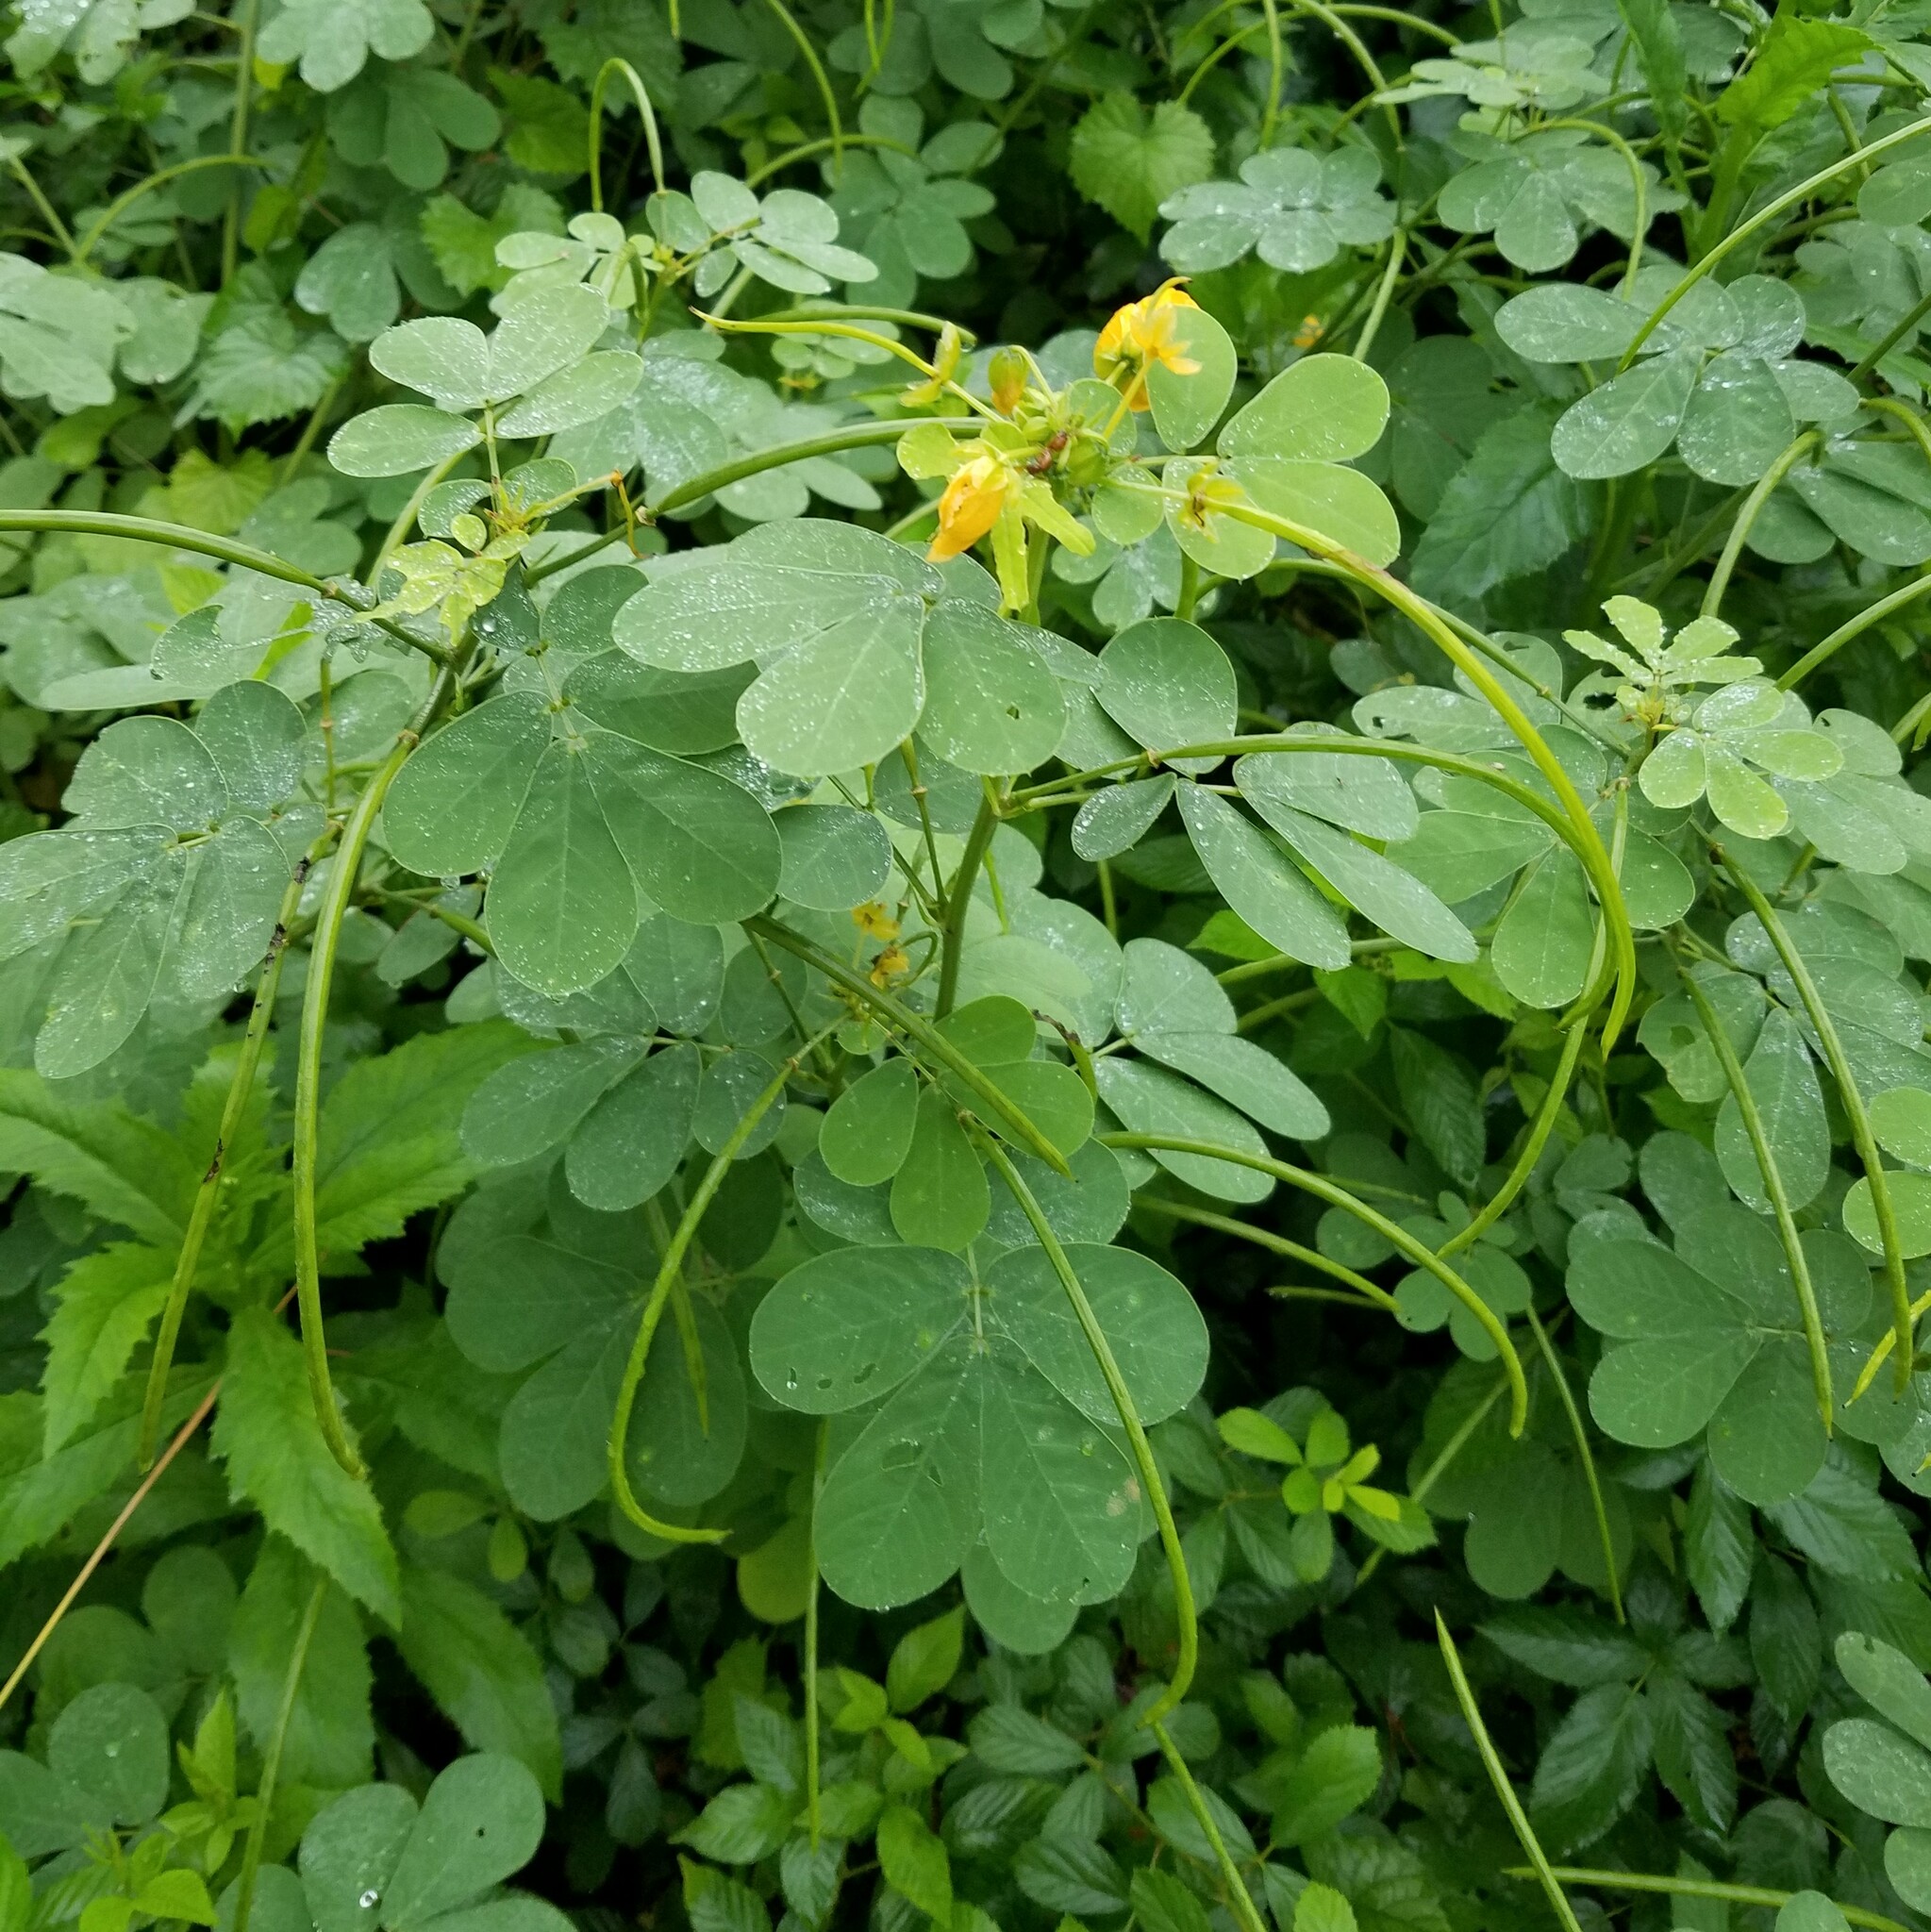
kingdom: Plantae
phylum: Tracheophyta
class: Magnoliopsida
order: Fabales
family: Fabaceae
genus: Senna
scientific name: Senna obtusifolia
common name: Java-bean
